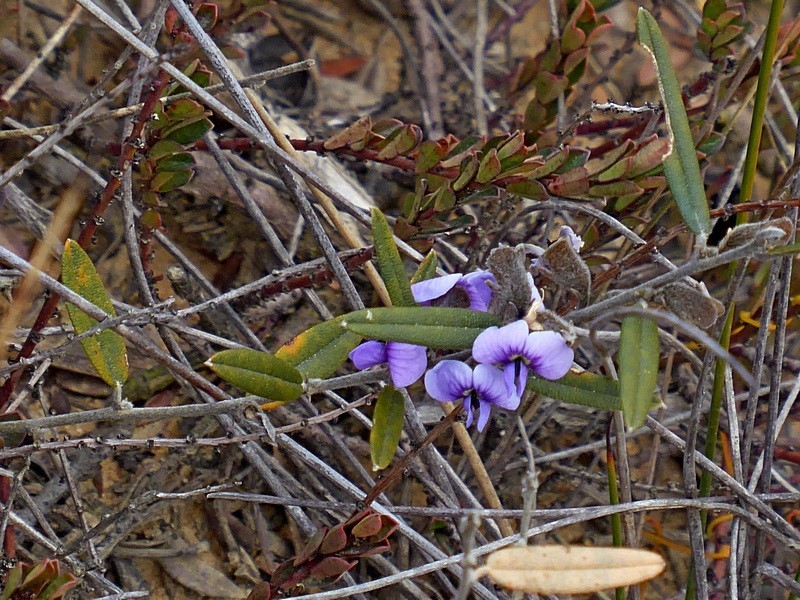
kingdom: Plantae
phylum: Tracheophyta
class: Magnoliopsida
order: Fabales
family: Fabaceae
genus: Hovea
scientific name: Hovea heterophylla
